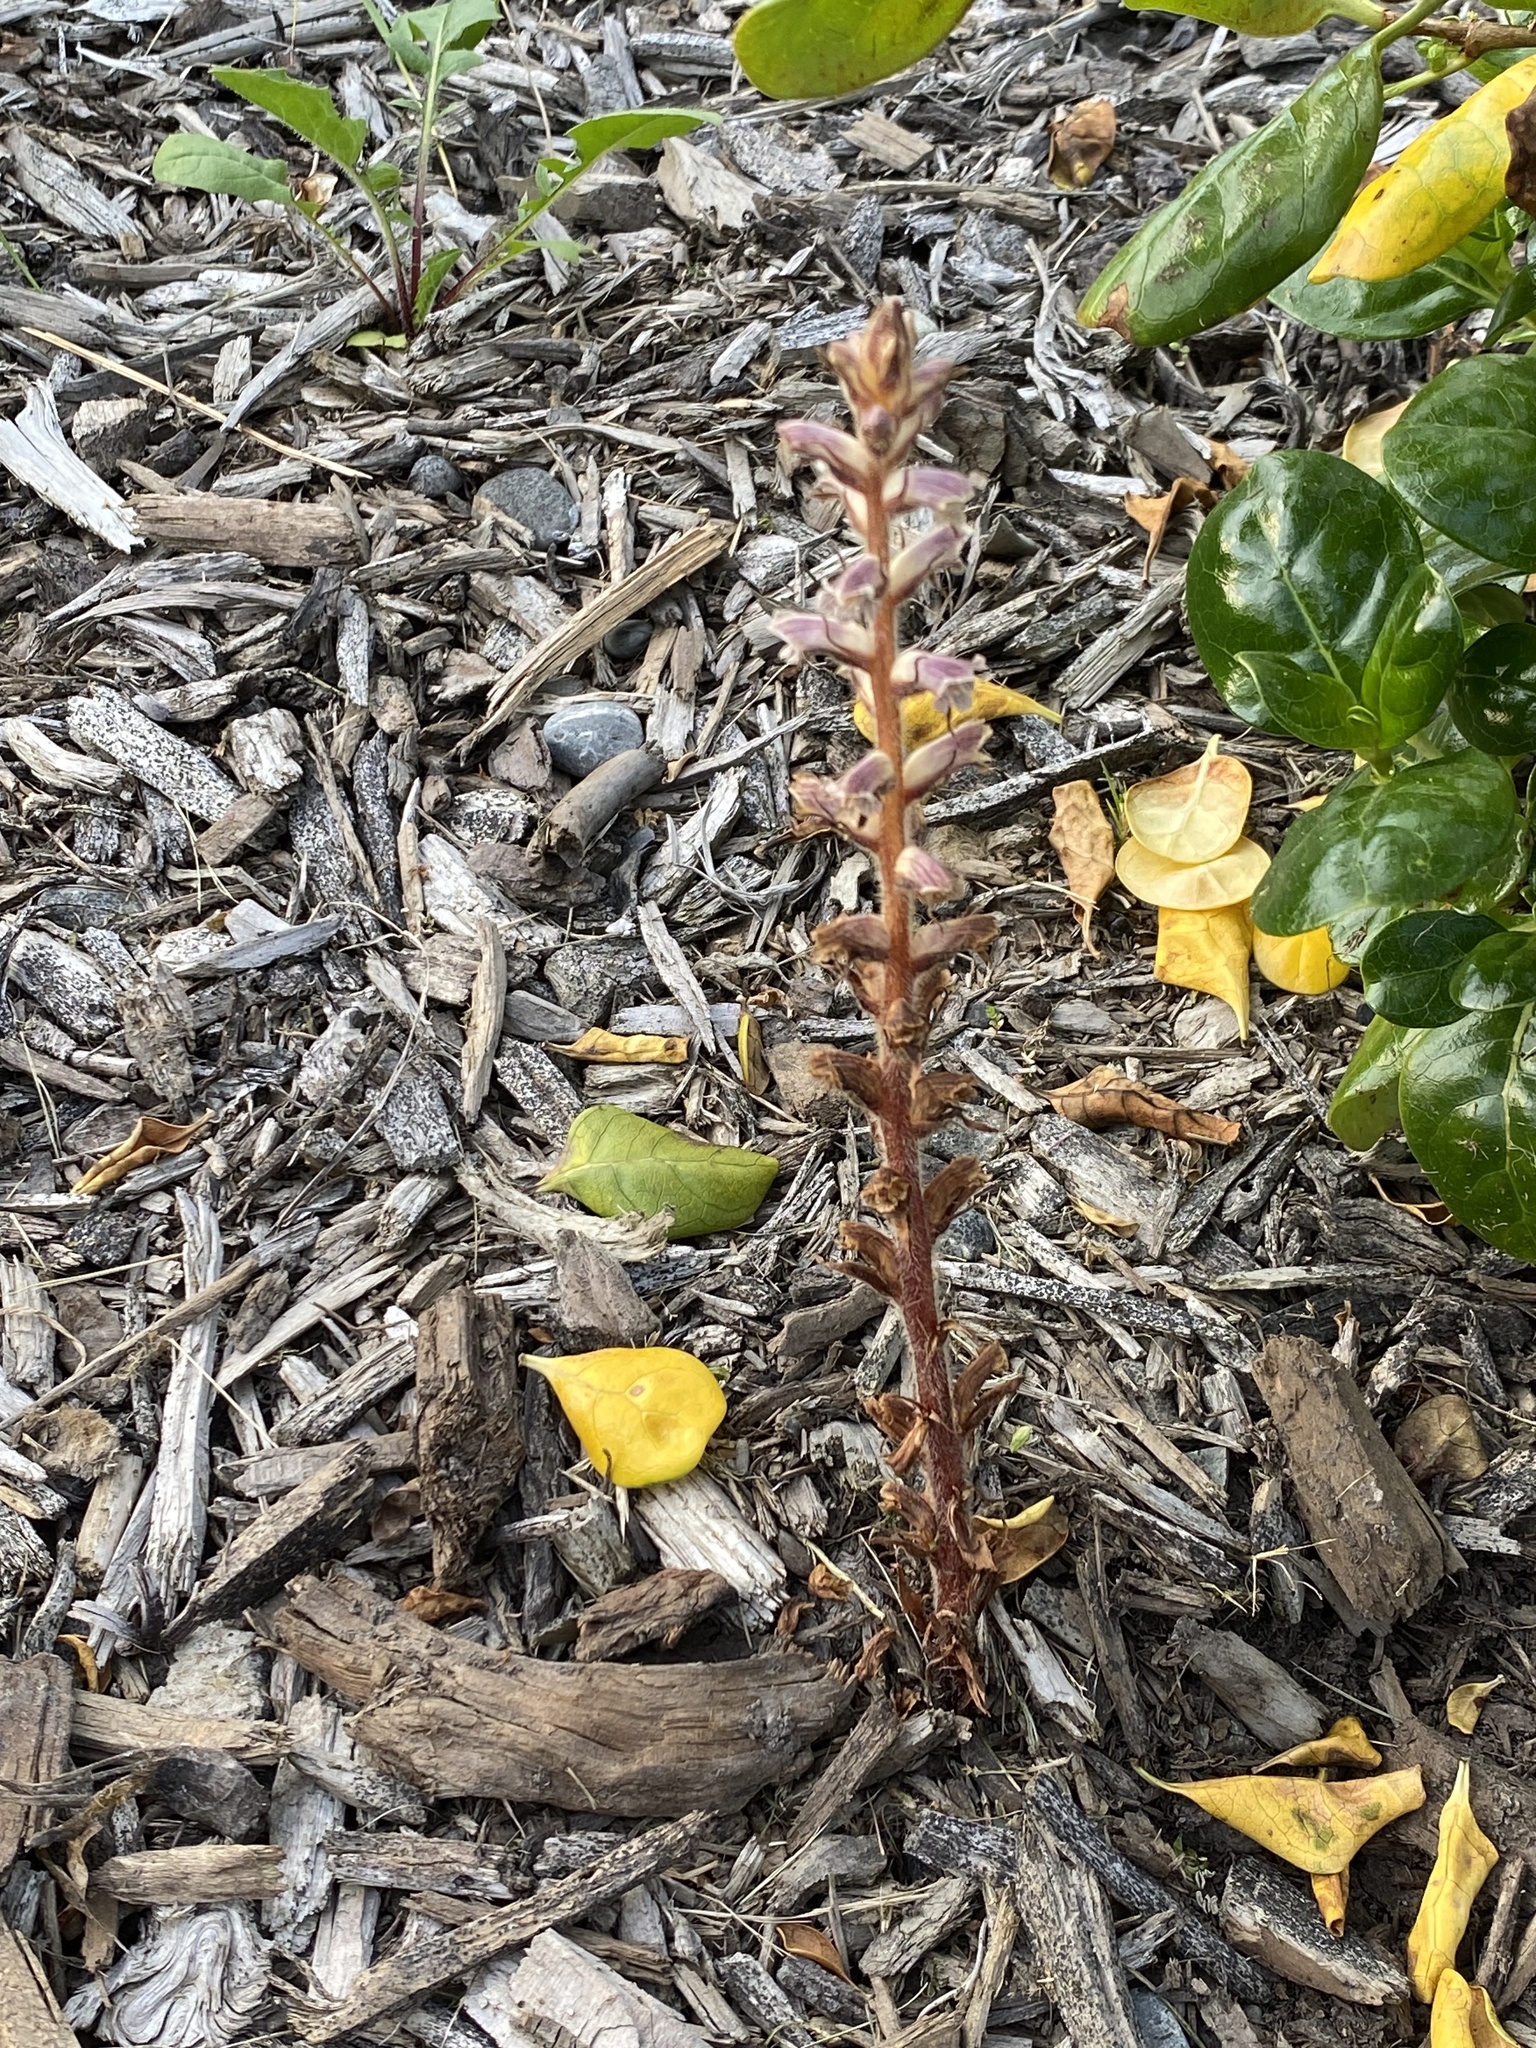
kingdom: Plantae
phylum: Tracheophyta
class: Magnoliopsida
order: Lamiales
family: Orobanchaceae
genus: Orobanche
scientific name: Orobanche minor
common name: Common broomrape
